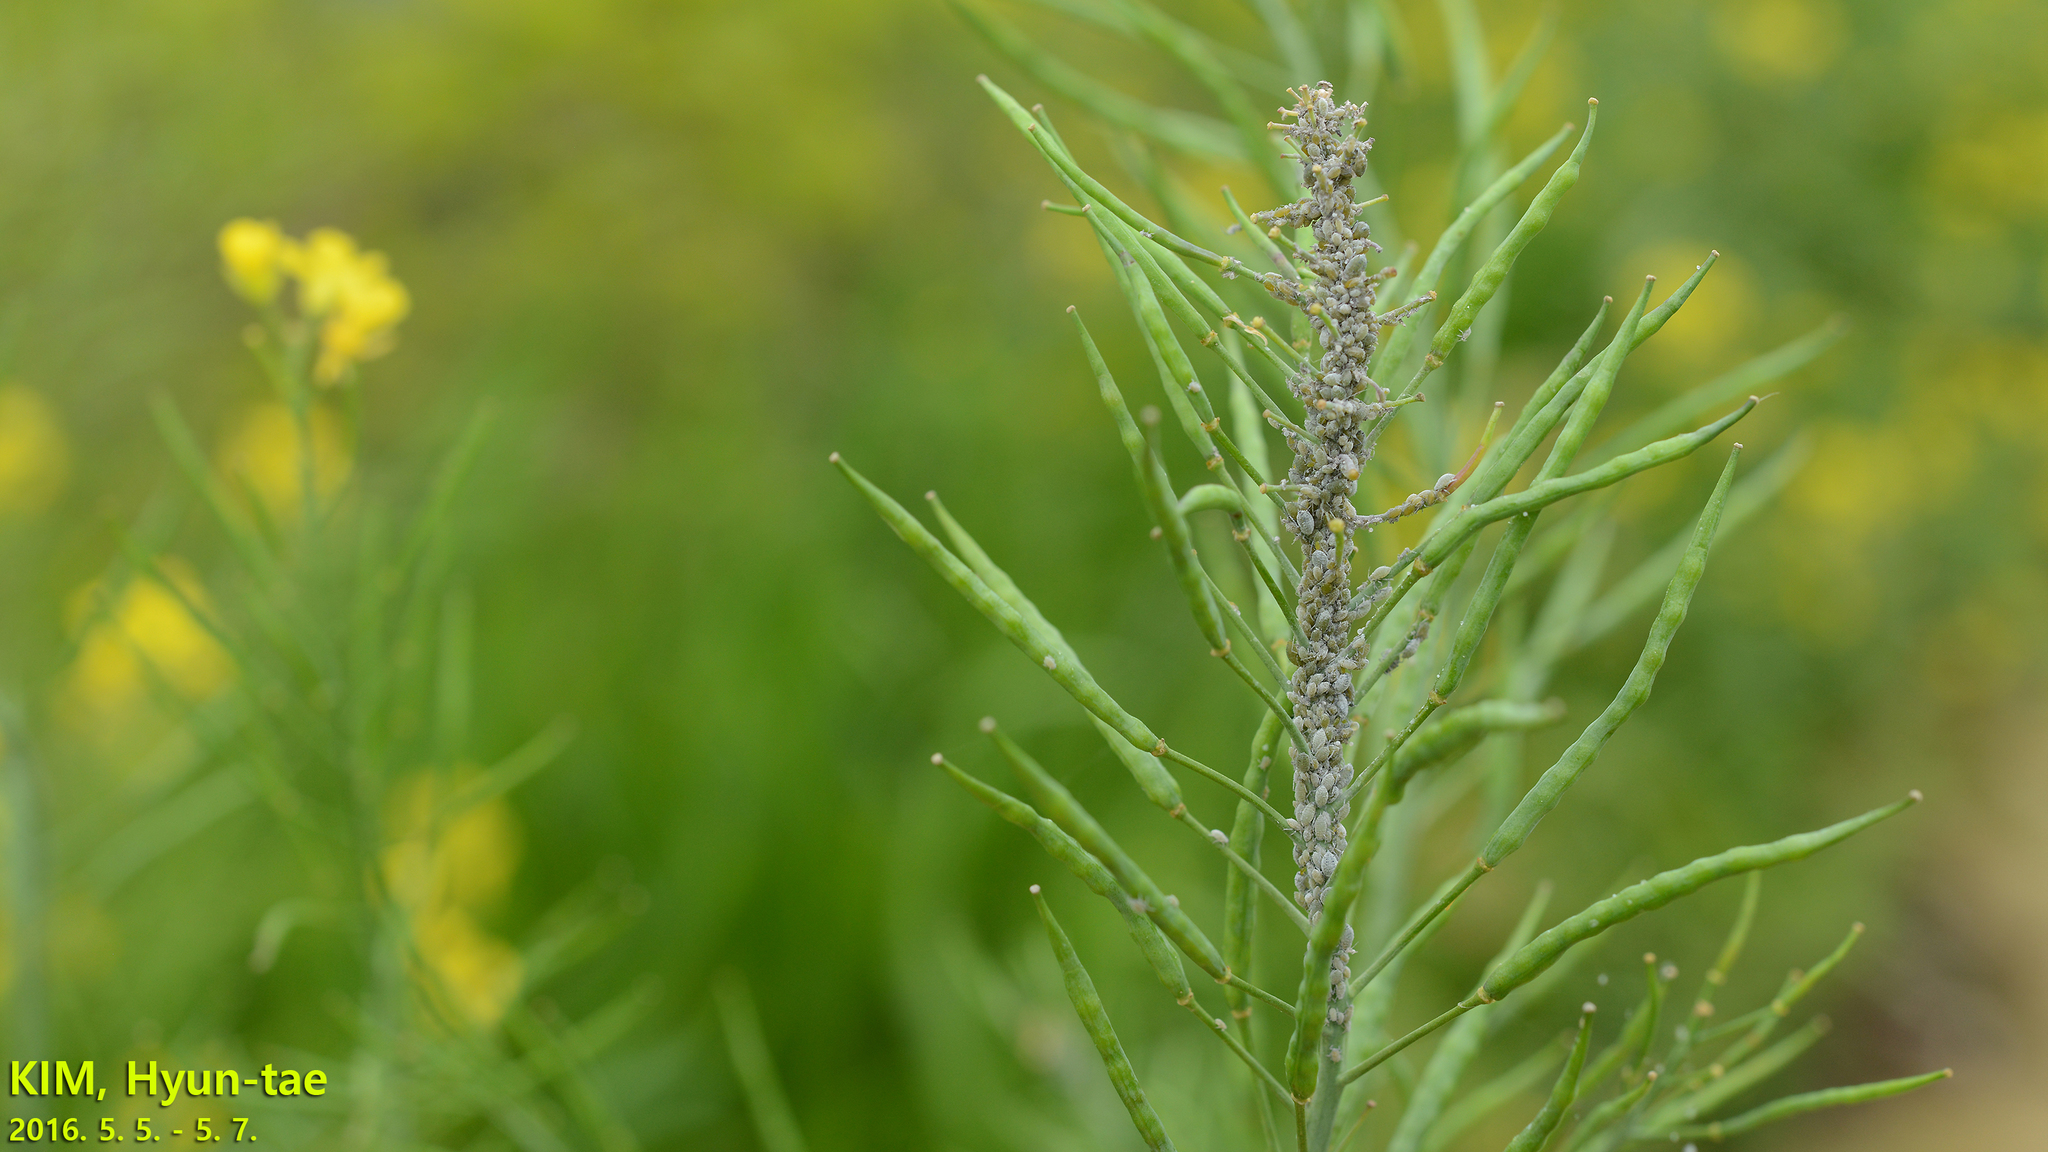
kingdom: Animalia
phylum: Arthropoda
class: Insecta
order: Hemiptera
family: Aphididae
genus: Brevicoryne
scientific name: Brevicoryne brassicae
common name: Cabbage aphid
